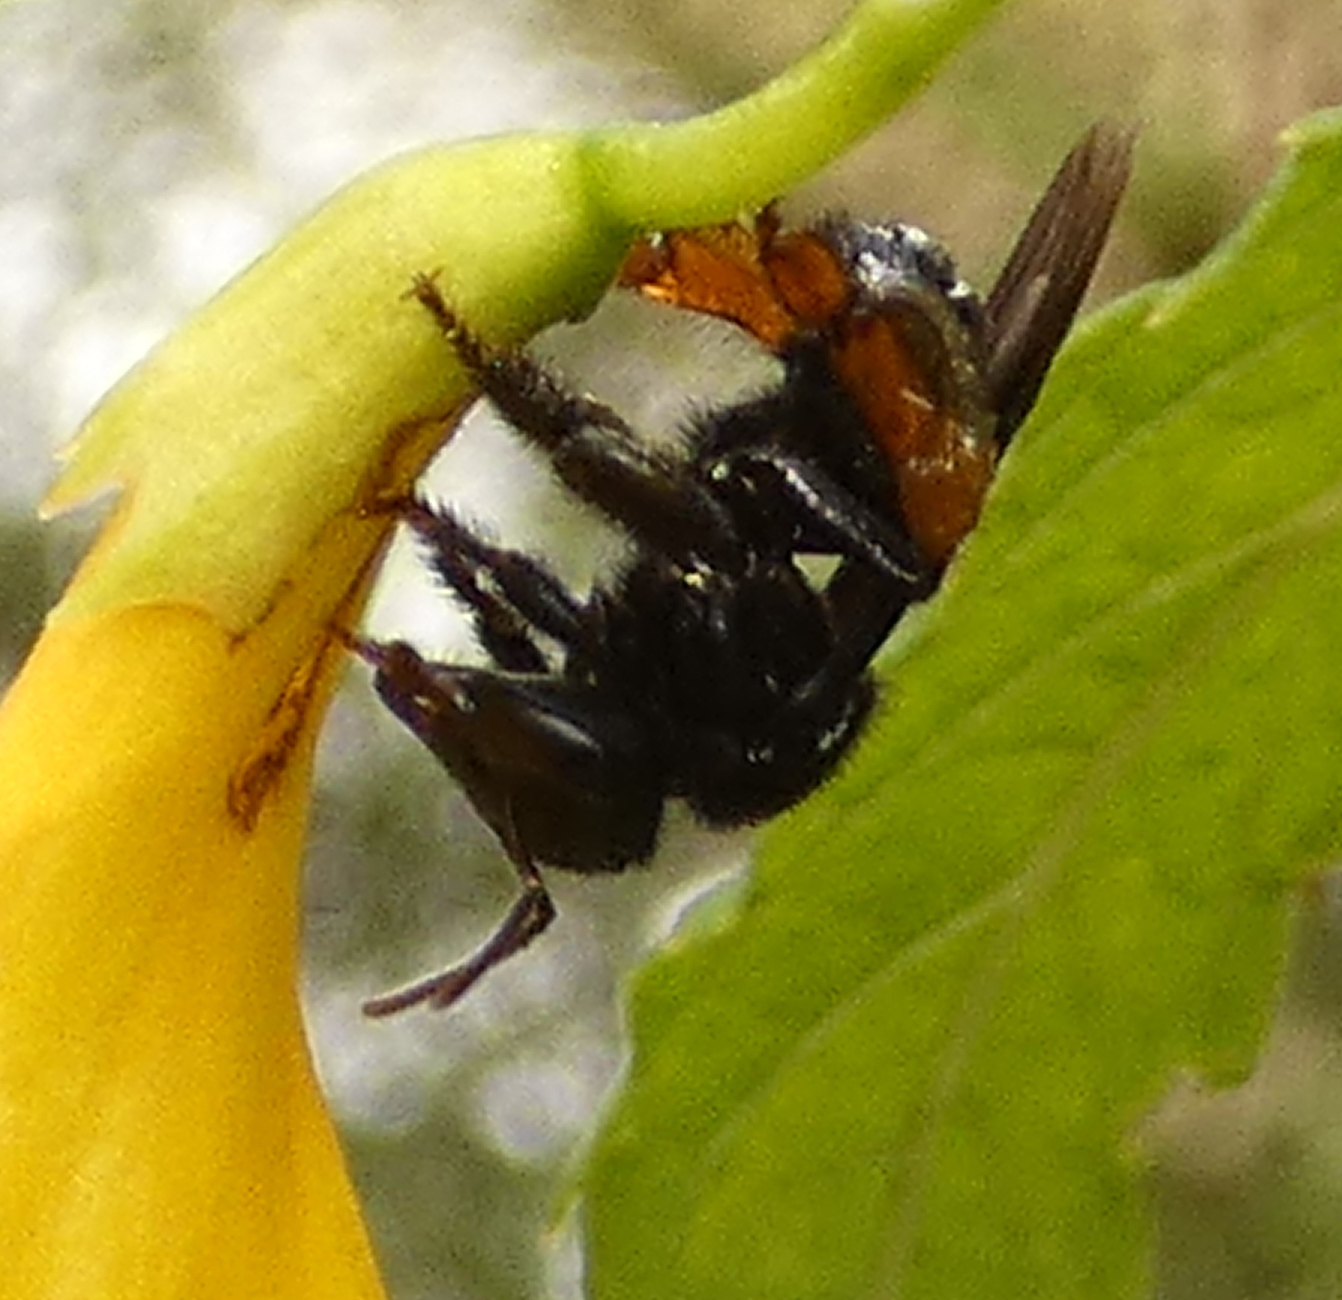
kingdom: Animalia
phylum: Arthropoda
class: Insecta
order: Hymenoptera
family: Apidae
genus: Trigona
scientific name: Trigona spinipes
